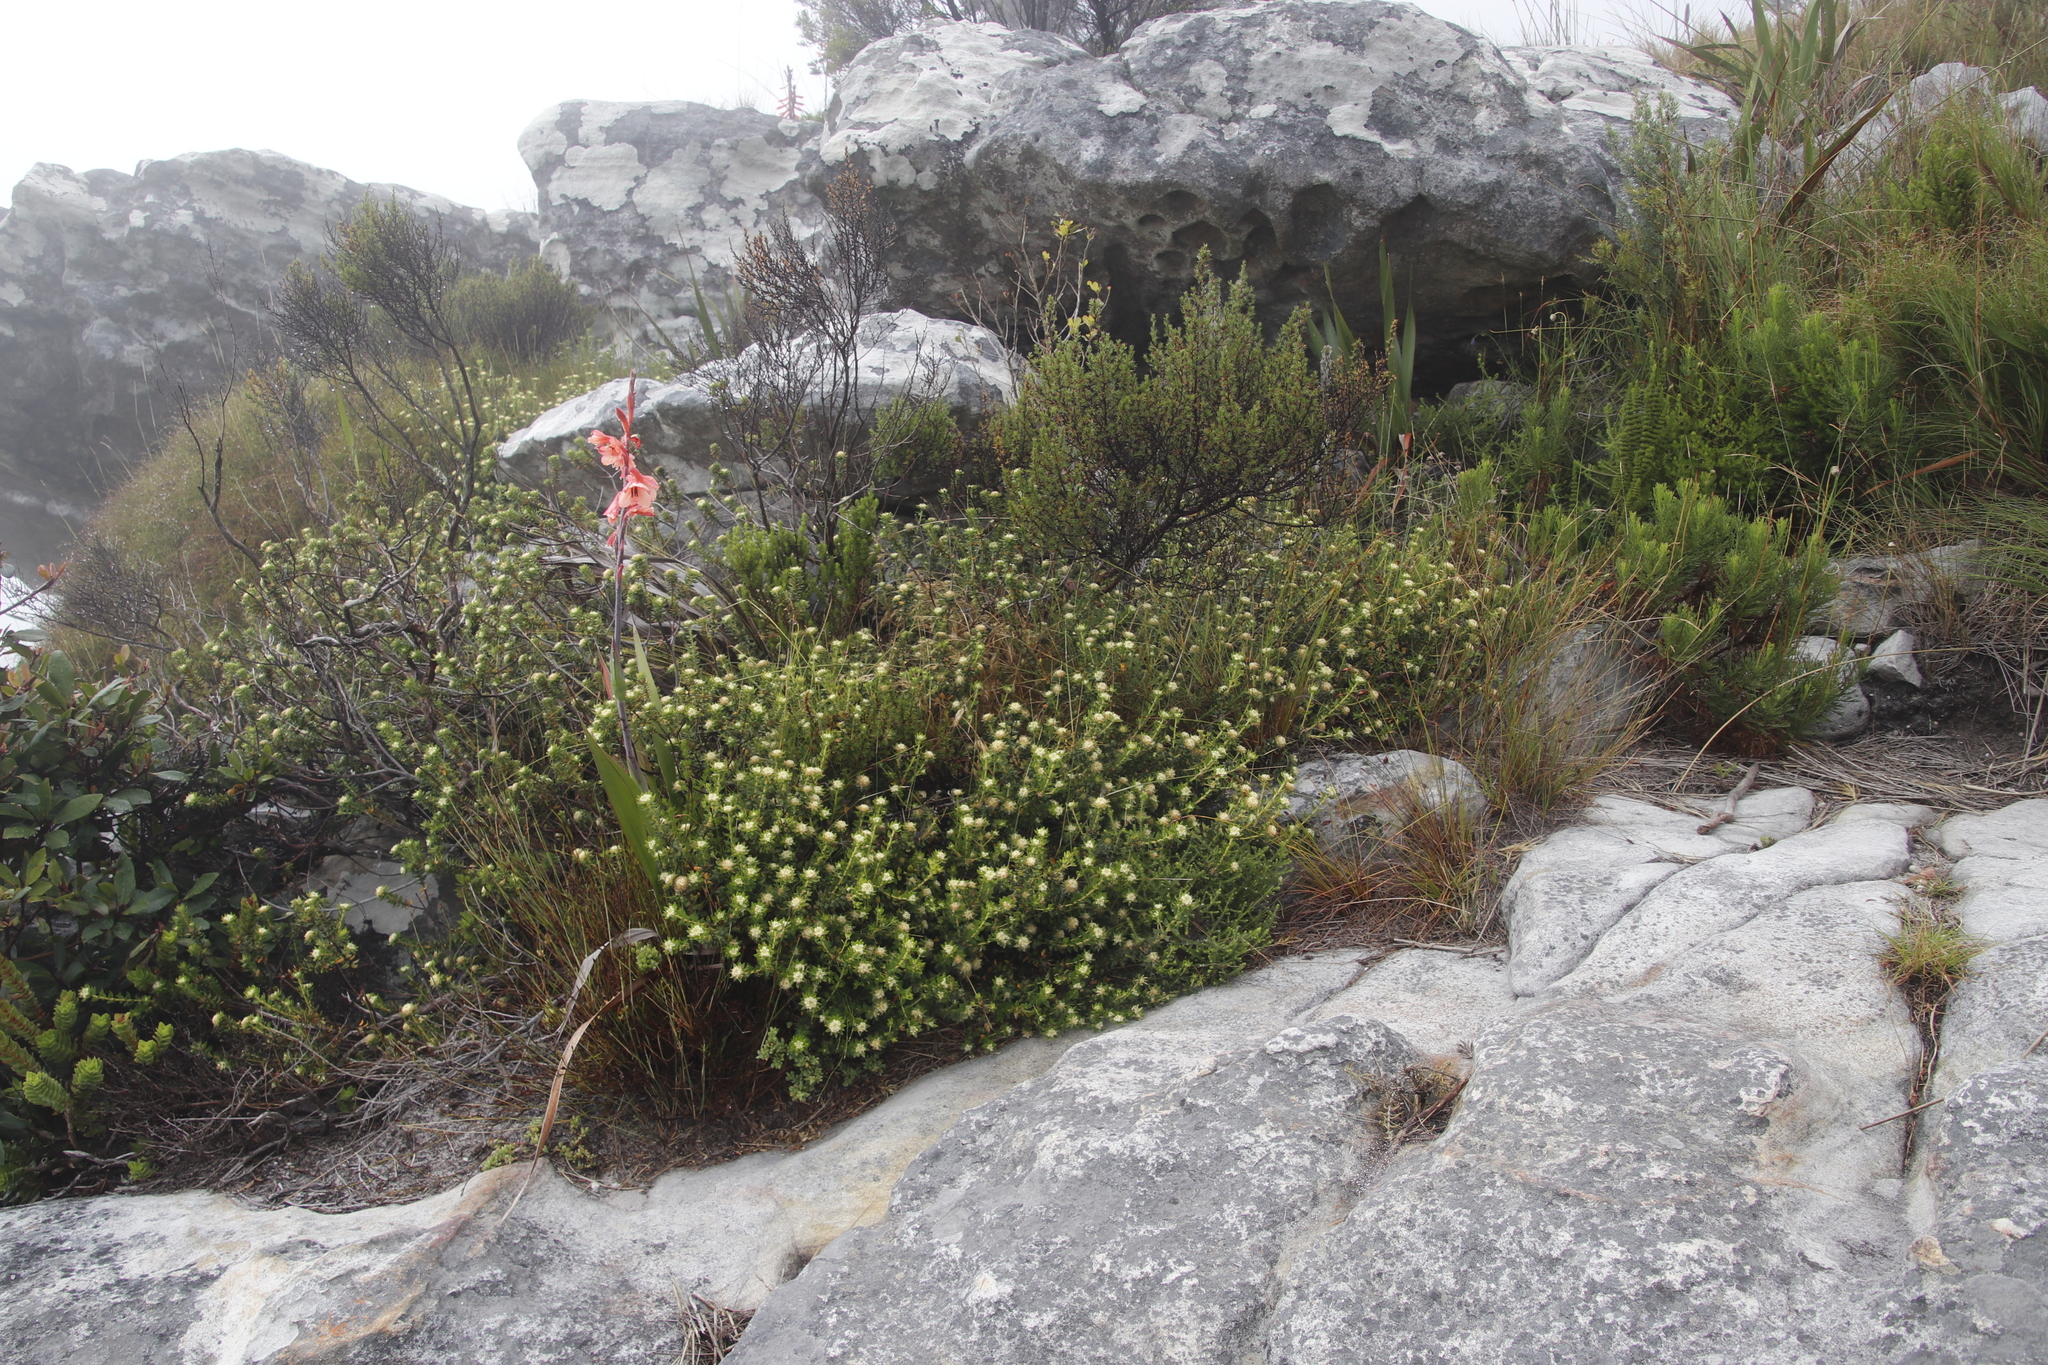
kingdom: Plantae
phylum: Tracheophyta
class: Magnoliopsida
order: Rosales
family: Rhamnaceae
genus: Phylica
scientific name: Phylica dioica
